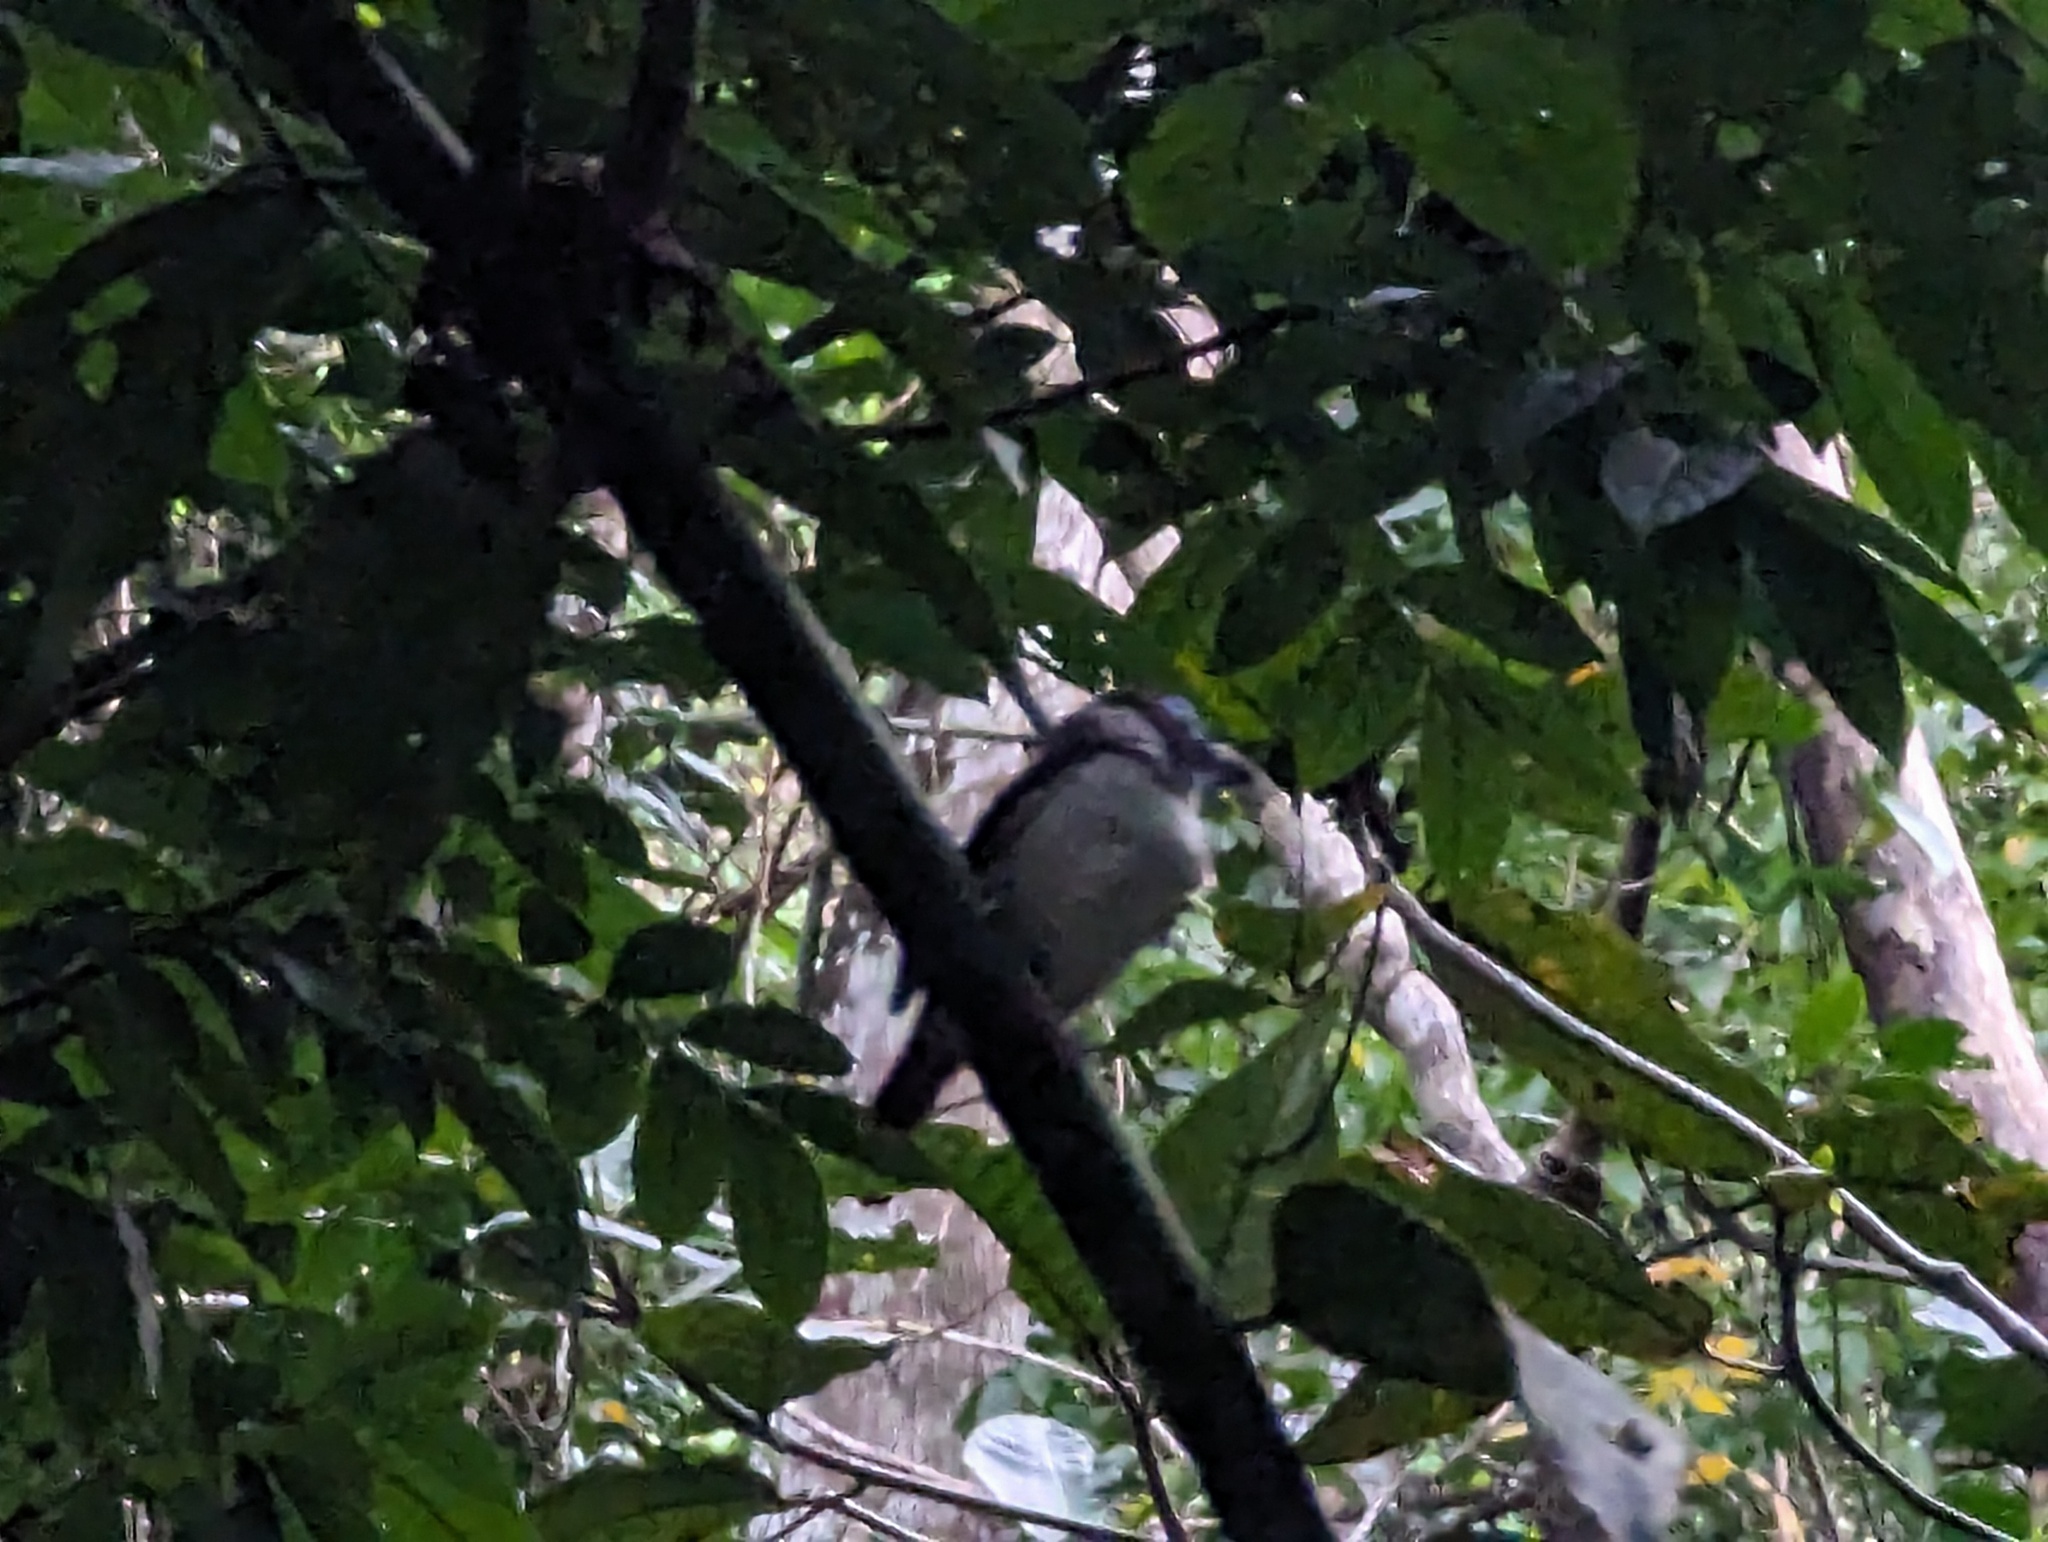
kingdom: Animalia
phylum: Chordata
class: Aves
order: Passeriformes
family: Laniidae
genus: Lanius
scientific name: Lanius cristatus
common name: Brown shrike
